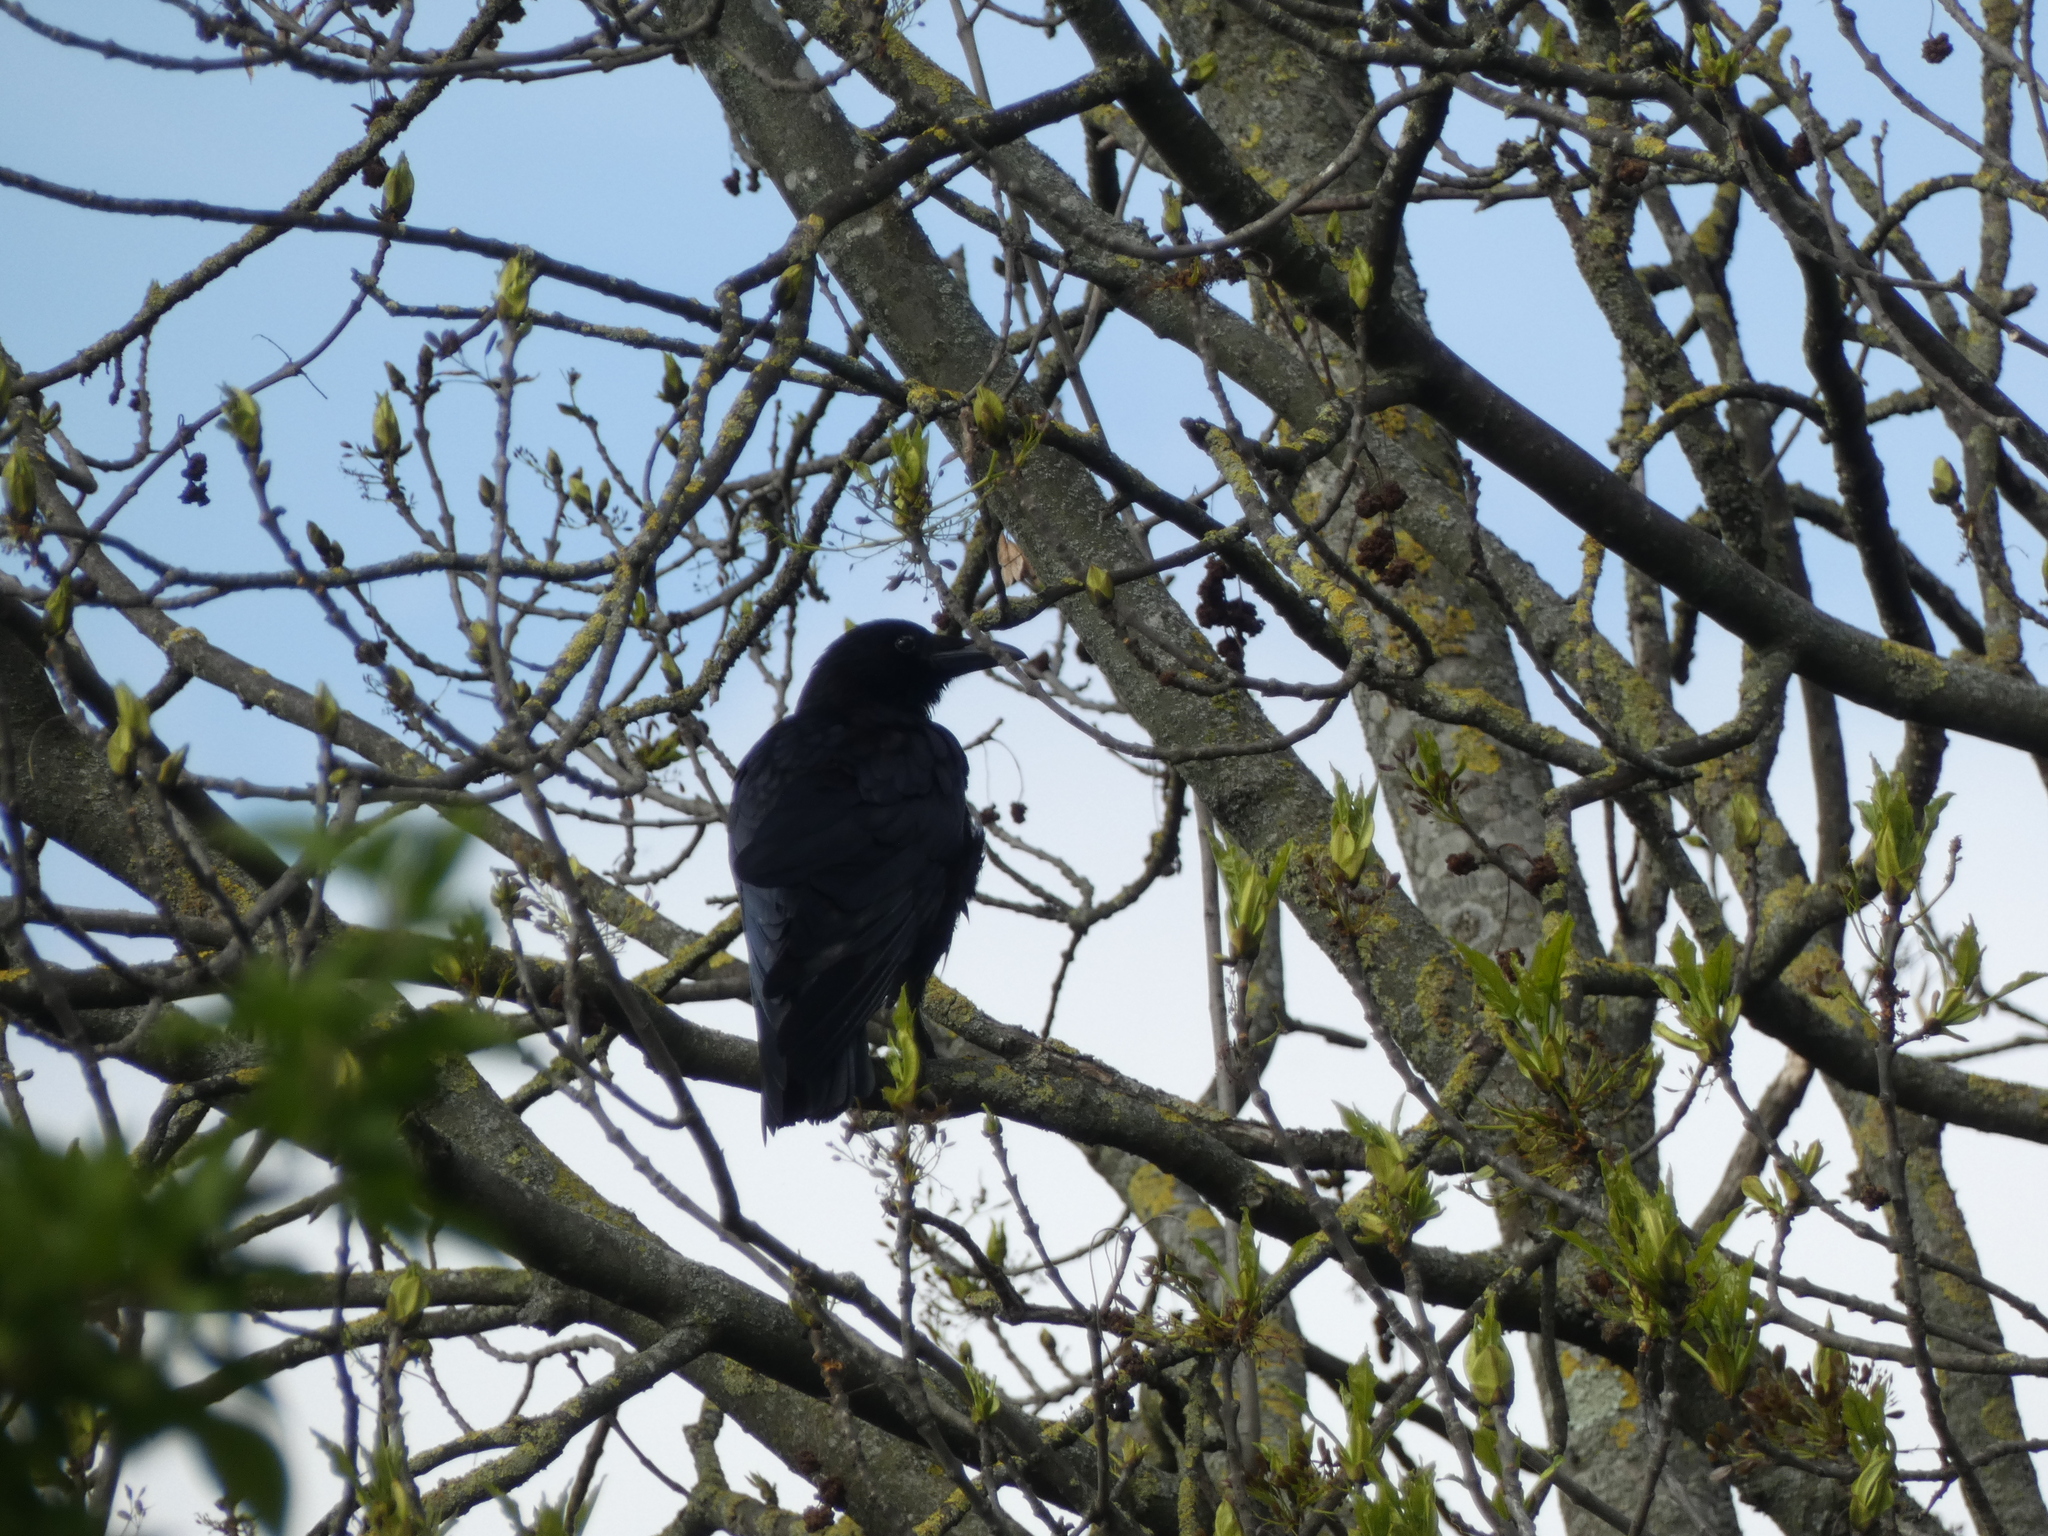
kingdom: Animalia
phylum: Chordata
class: Aves
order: Passeriformes
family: Corvidae
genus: Corvus
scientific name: Corvus corone
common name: Carrion crow
